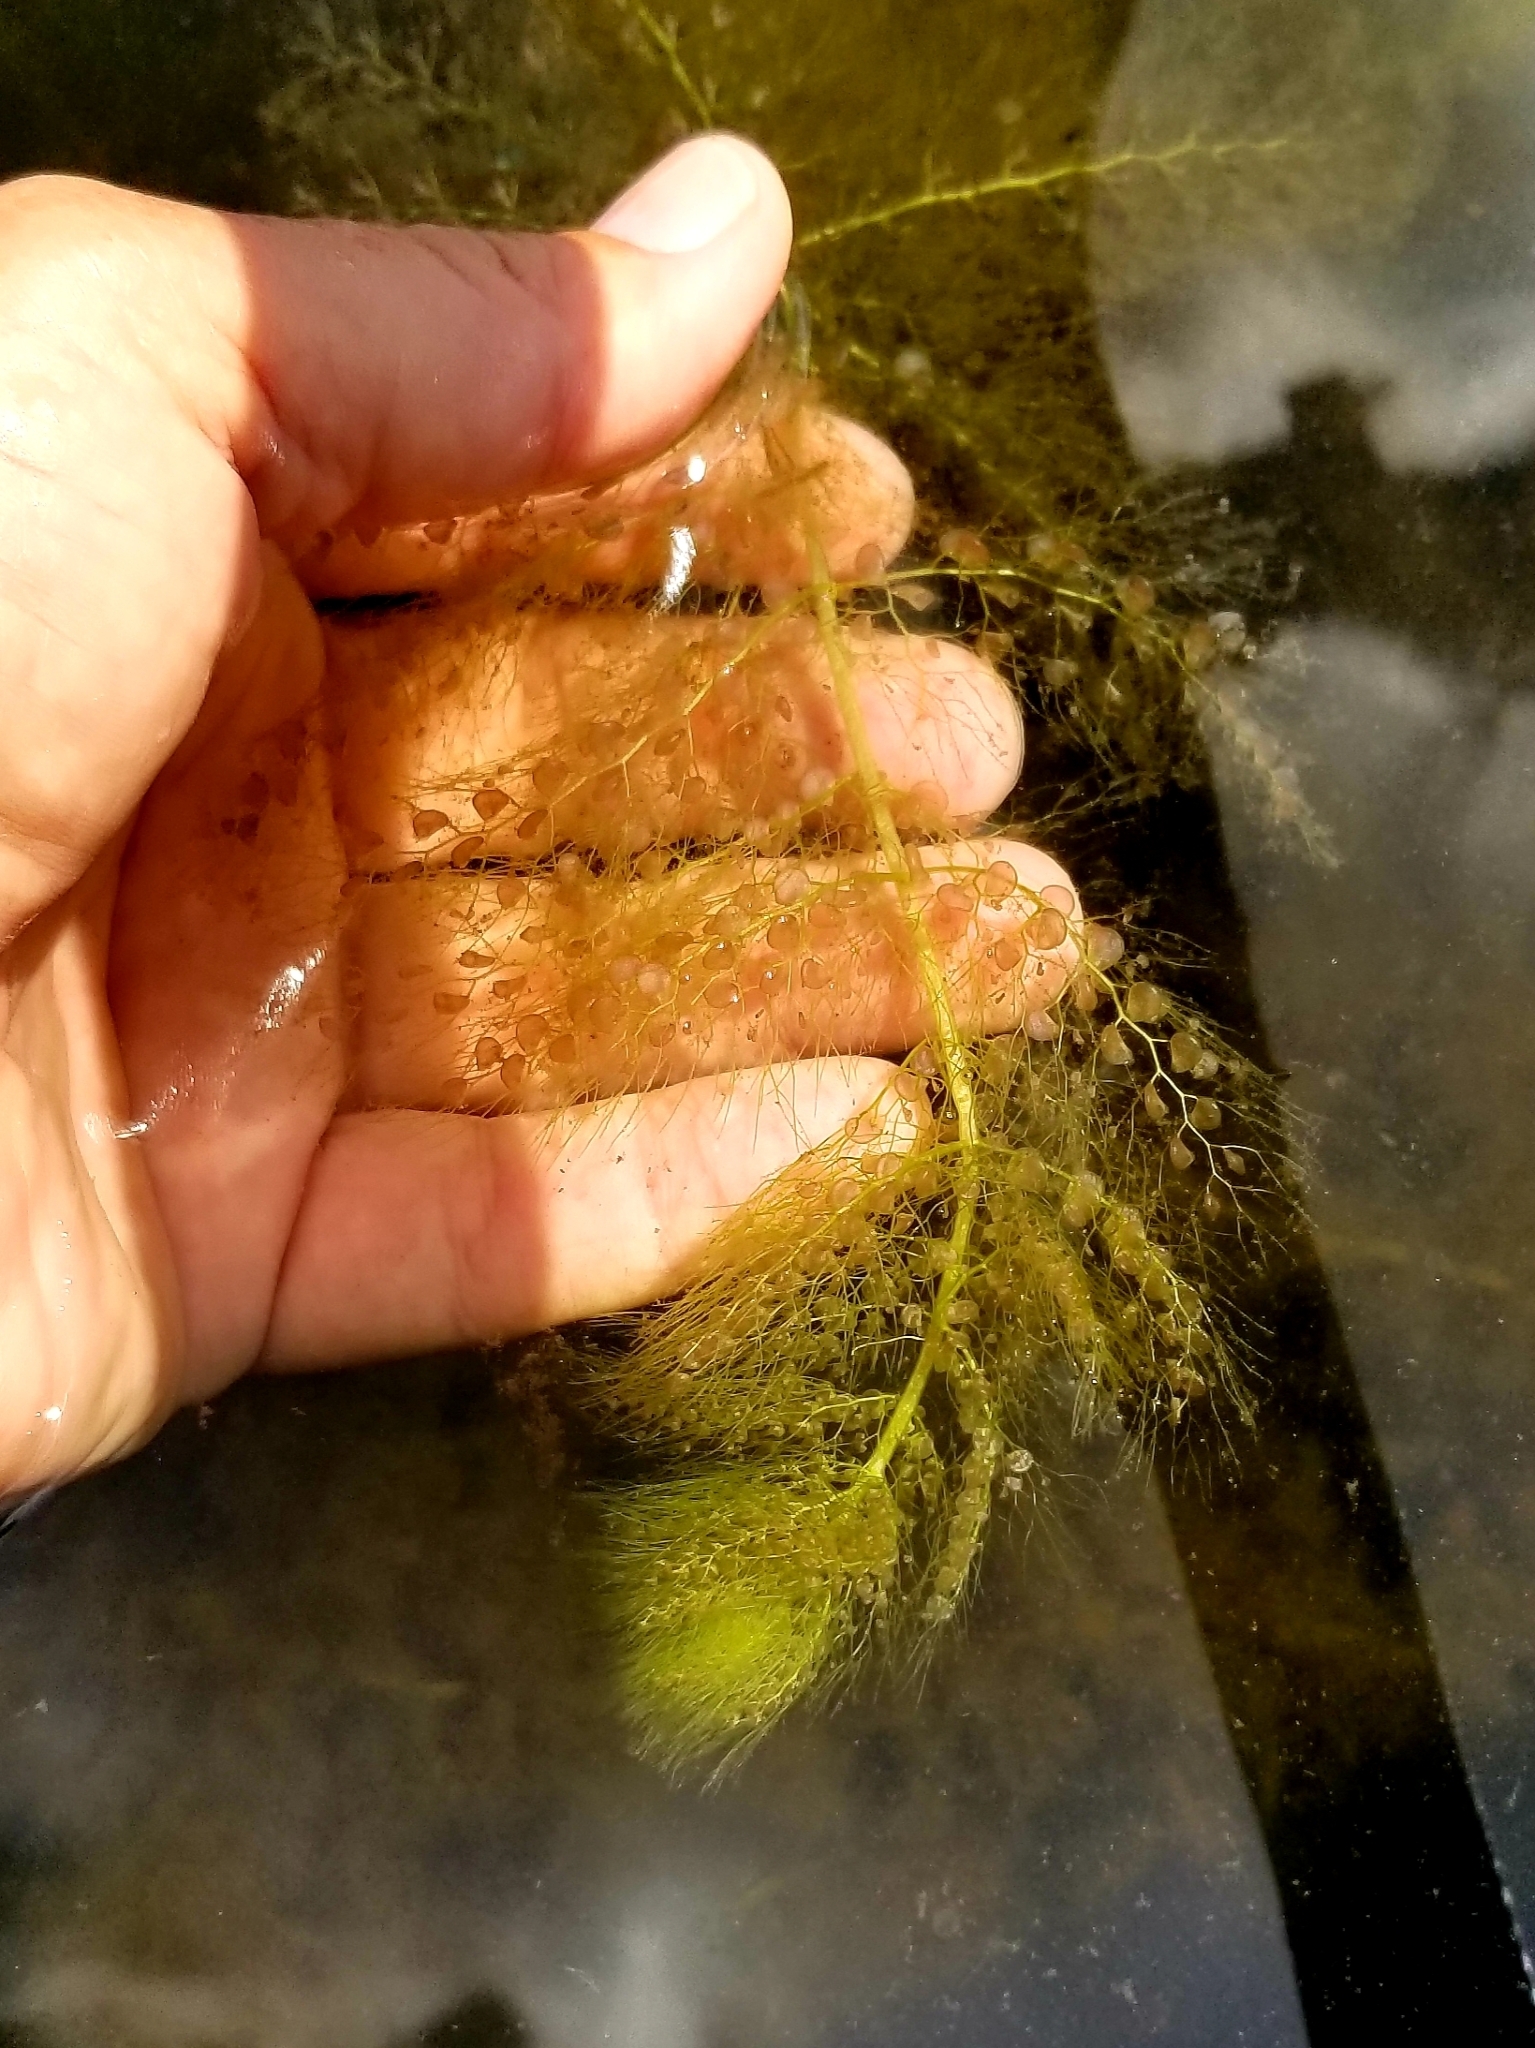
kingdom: Plantae
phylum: Tracheophyta
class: Magnoliopsida
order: Lamiales
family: Lentibulariaceae
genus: Utricularia
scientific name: Utricularia macrorhiza
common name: Common bladderwort
